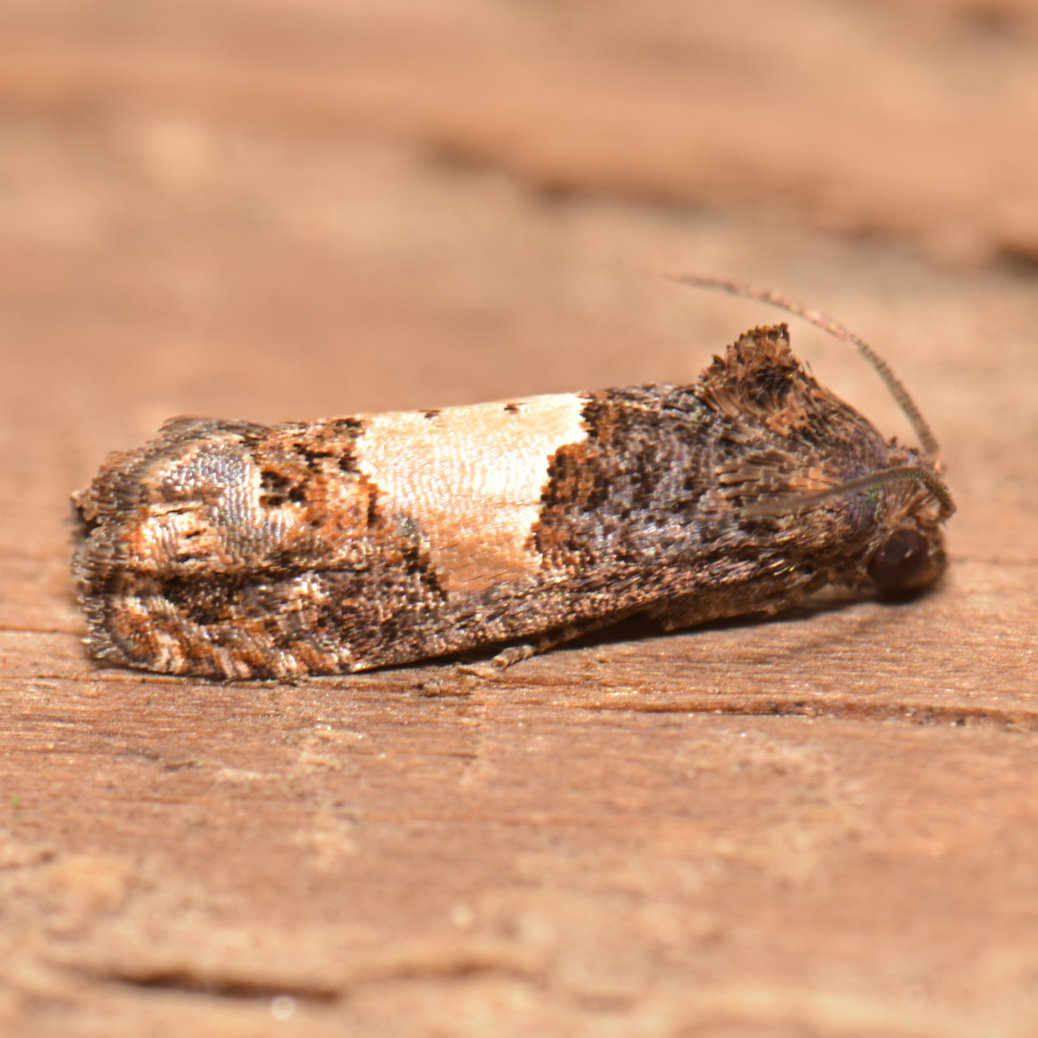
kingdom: Animalia
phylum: Arthropoda
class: Insecta
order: Lepidoptera
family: Tortricidae
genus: Epiblema
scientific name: Epiblema glenni
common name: Glenn's epiblema
